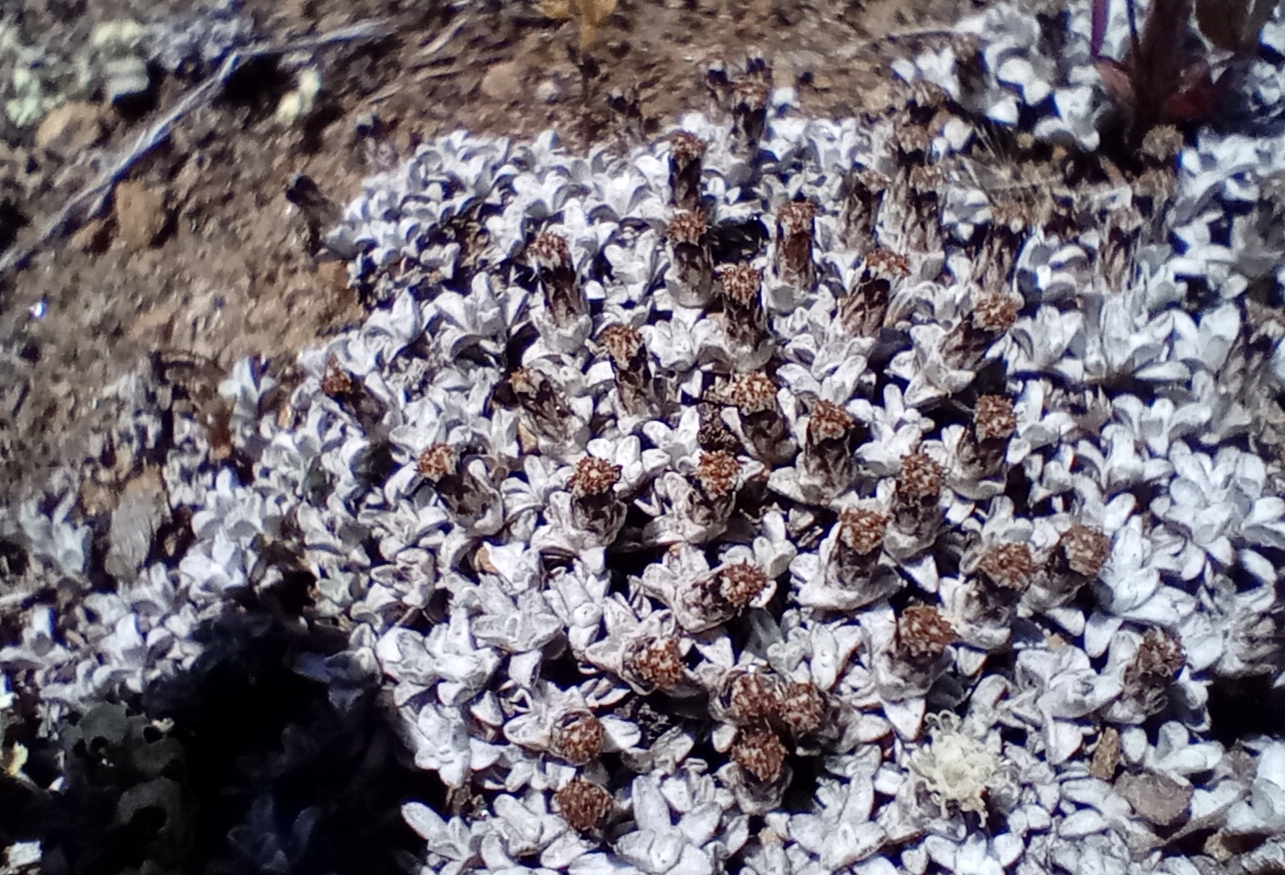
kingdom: Plantae
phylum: Tracheophyta
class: Magnoliopsida
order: Asterales
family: Asteraceae
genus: Raoulia
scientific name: Raoulia apicinigra
